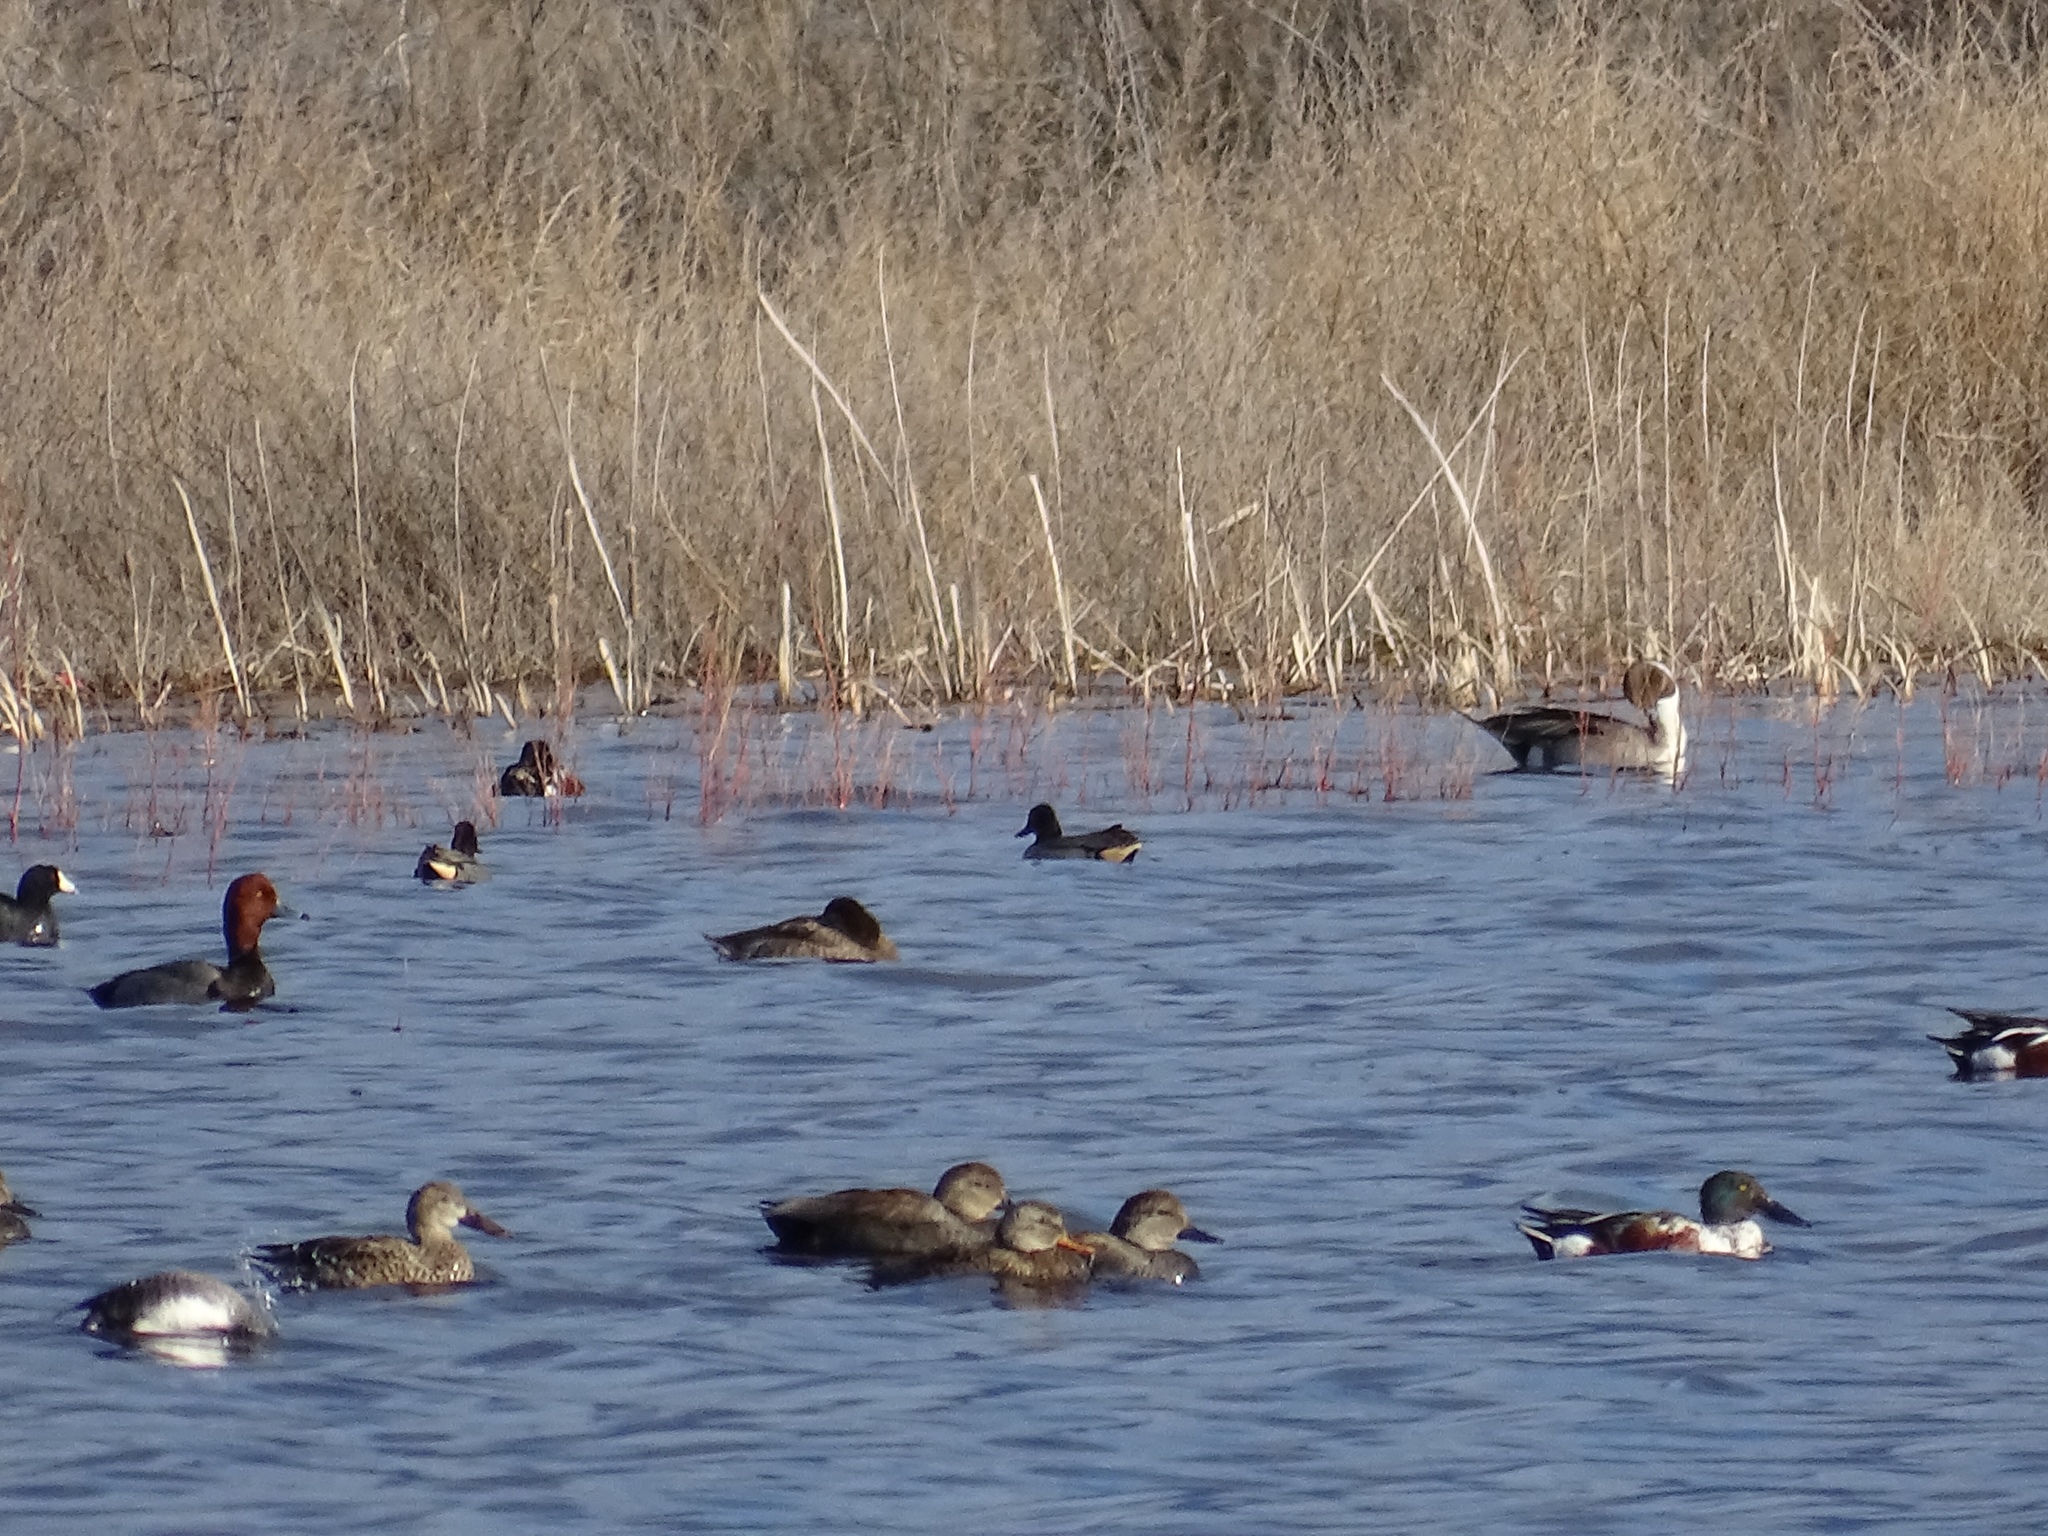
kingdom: Animalia
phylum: Chordata
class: Aves
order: Anseriformes
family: Anatidae
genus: Aythya
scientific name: Aythya americana
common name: Redhead
